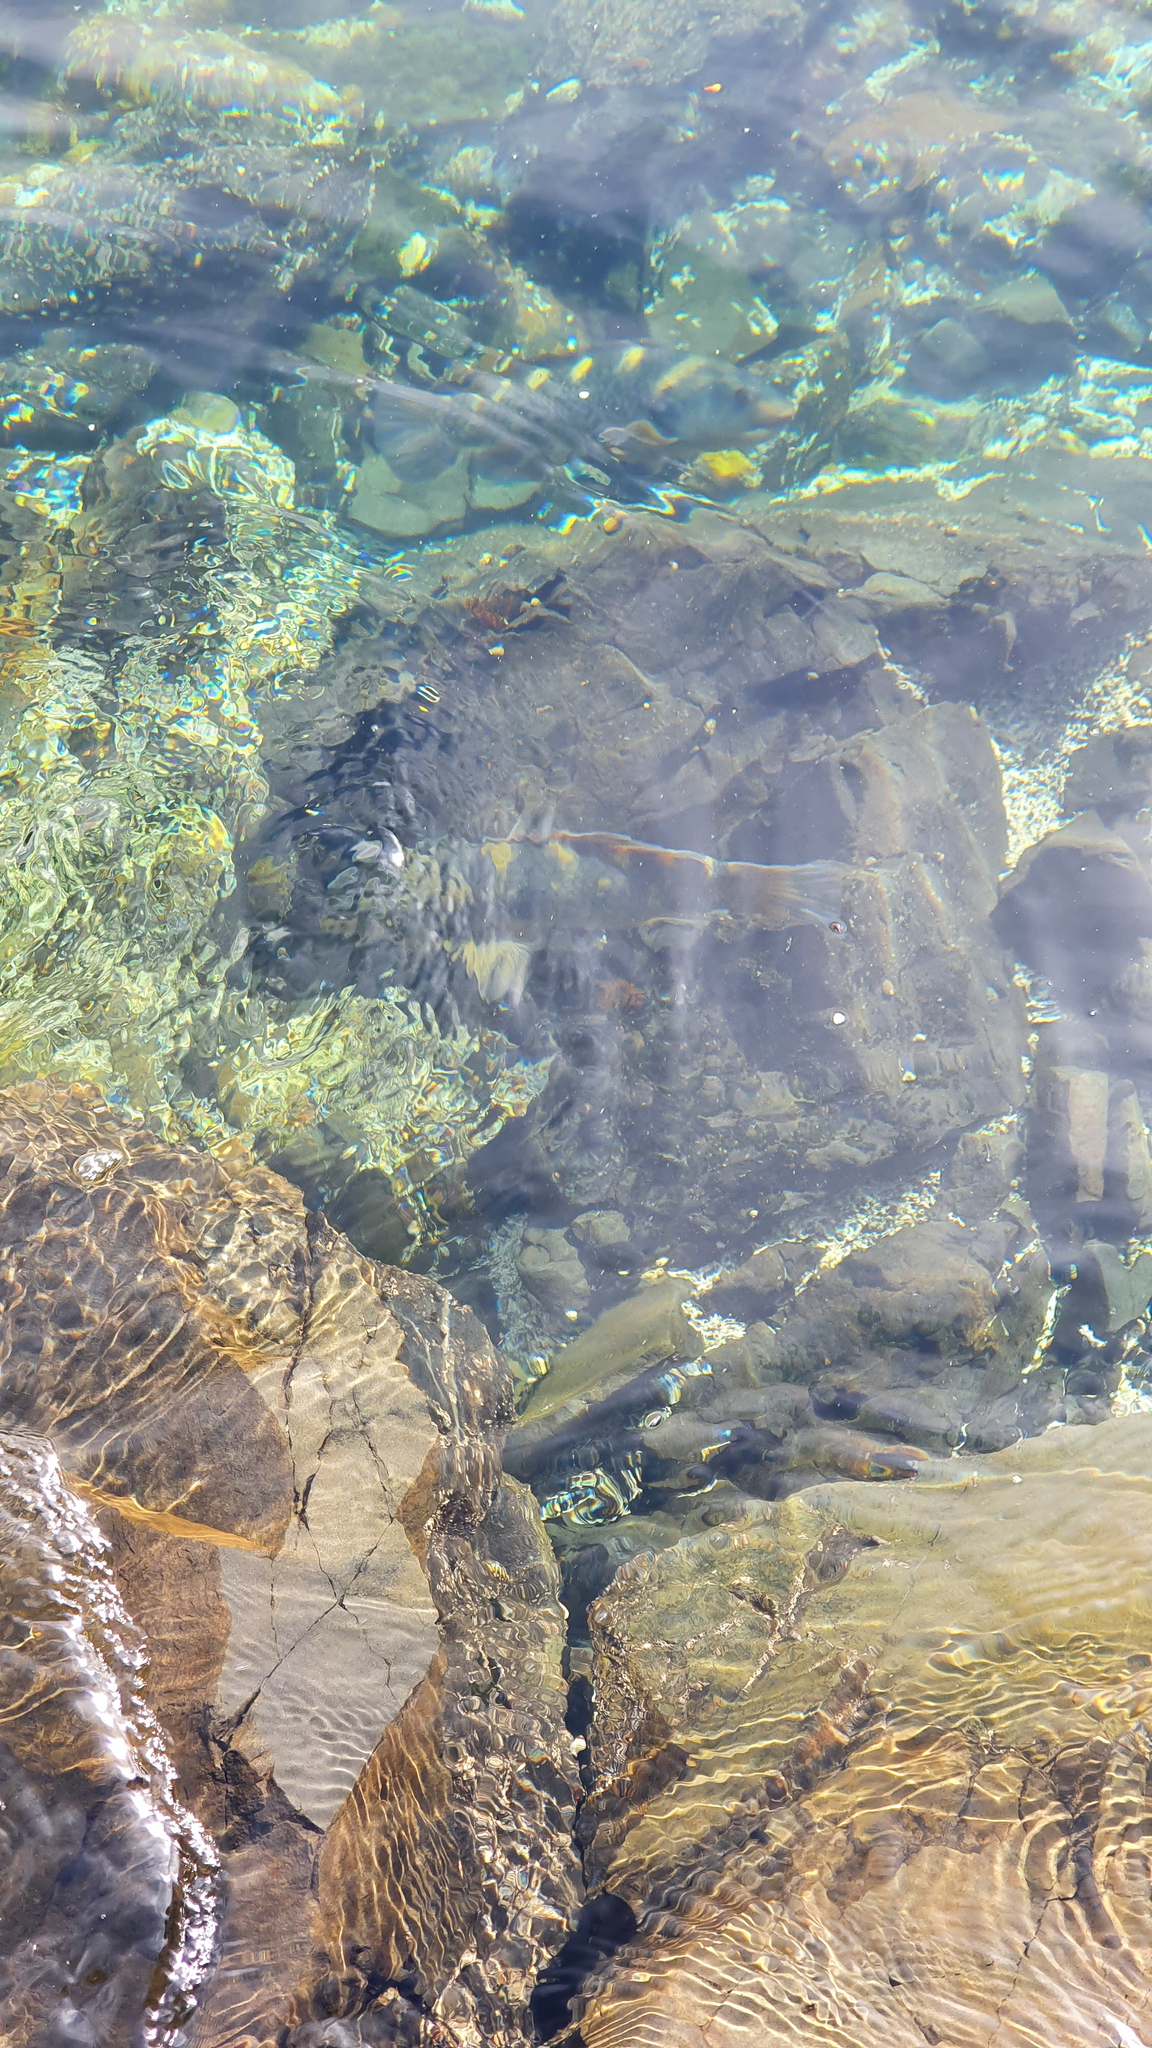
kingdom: Animalia
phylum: Chordata
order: Perciformes
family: Labridae
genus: Notolabrus
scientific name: Notolabrus fucicola
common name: Banded parrotfish
